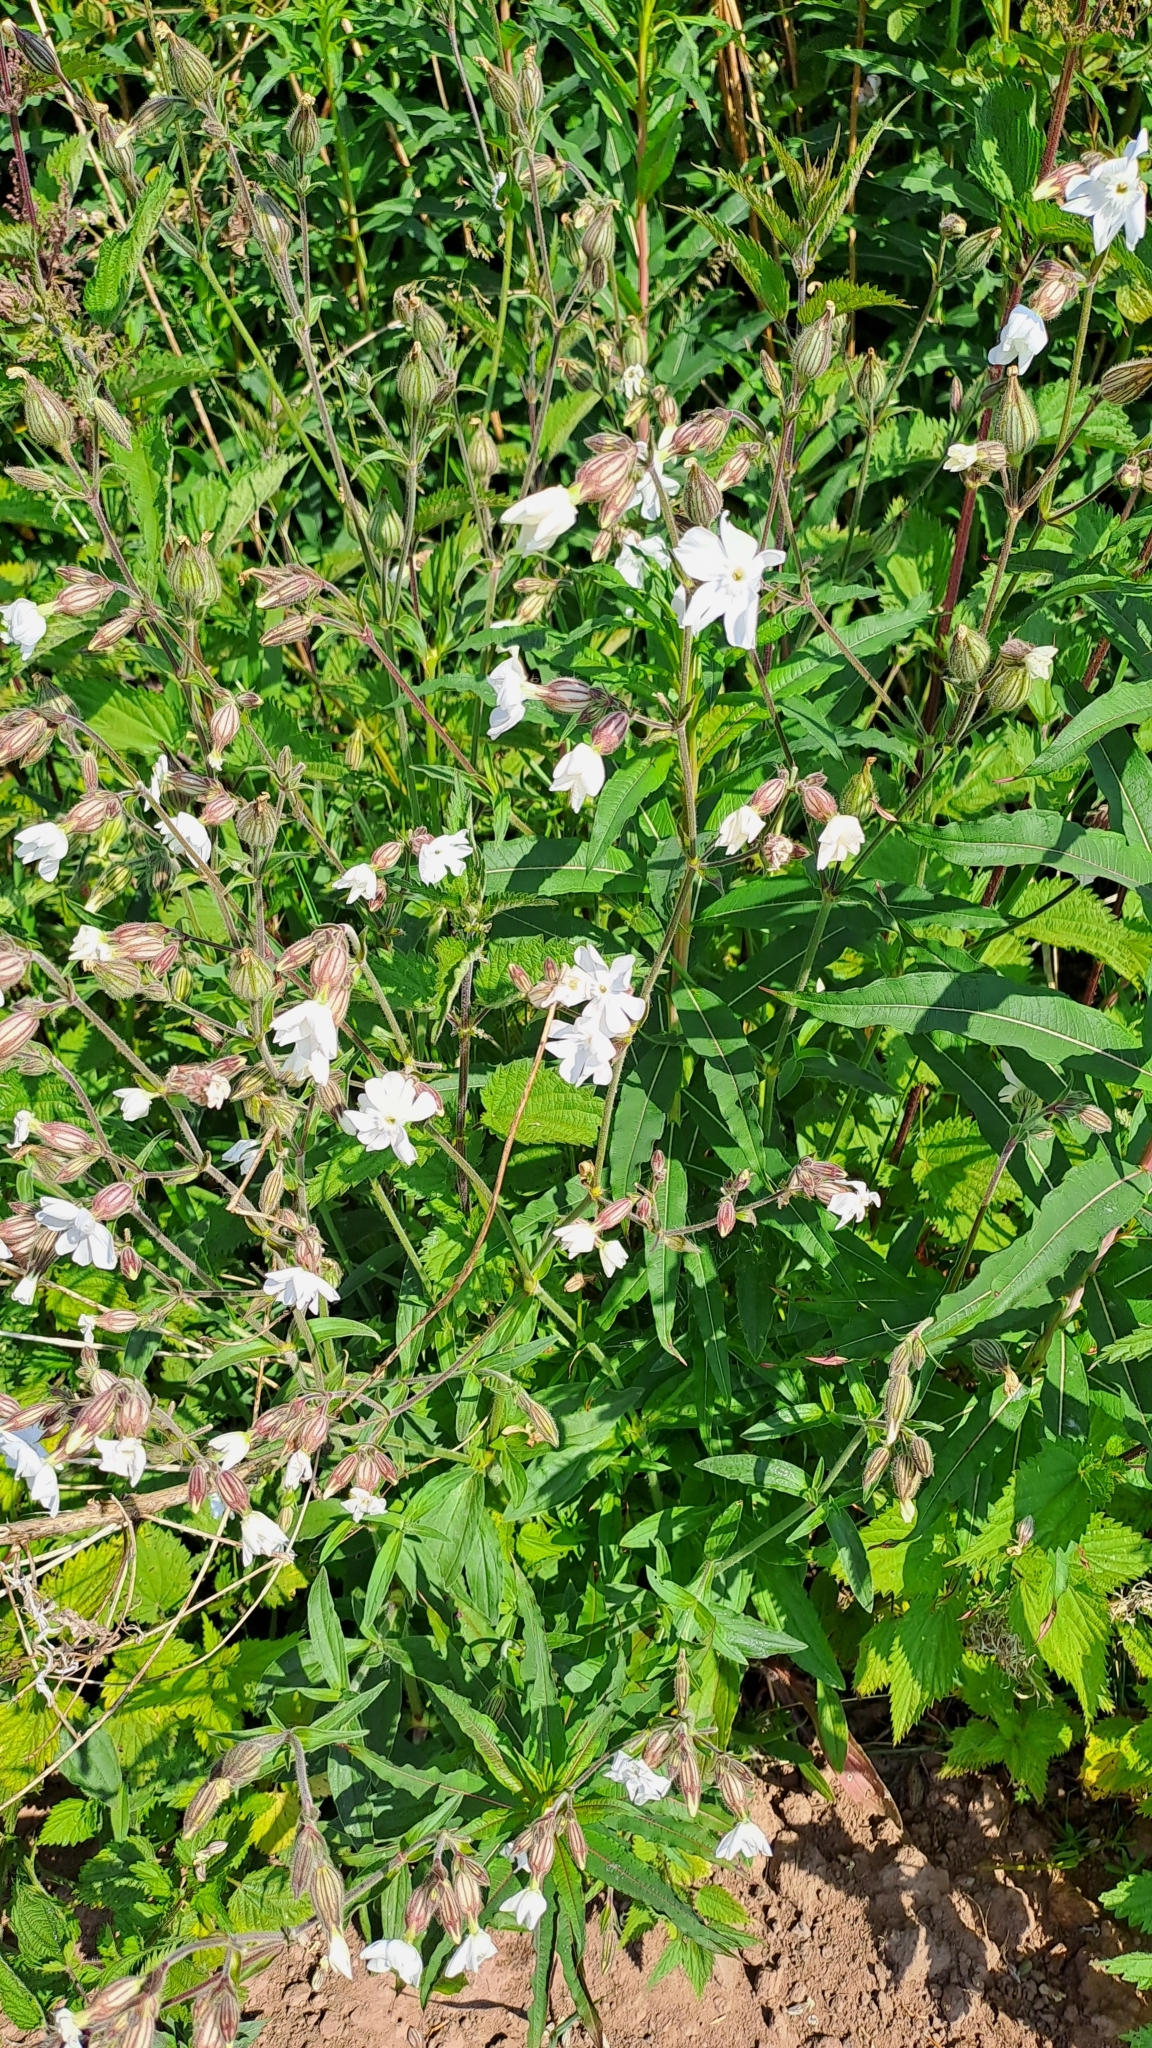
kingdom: Plantae
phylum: Tracheophyta
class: Magnoliopsida
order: Caryophyllales
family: Caryophyllaceae
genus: Silene
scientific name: Silene latifolia
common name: White campion
